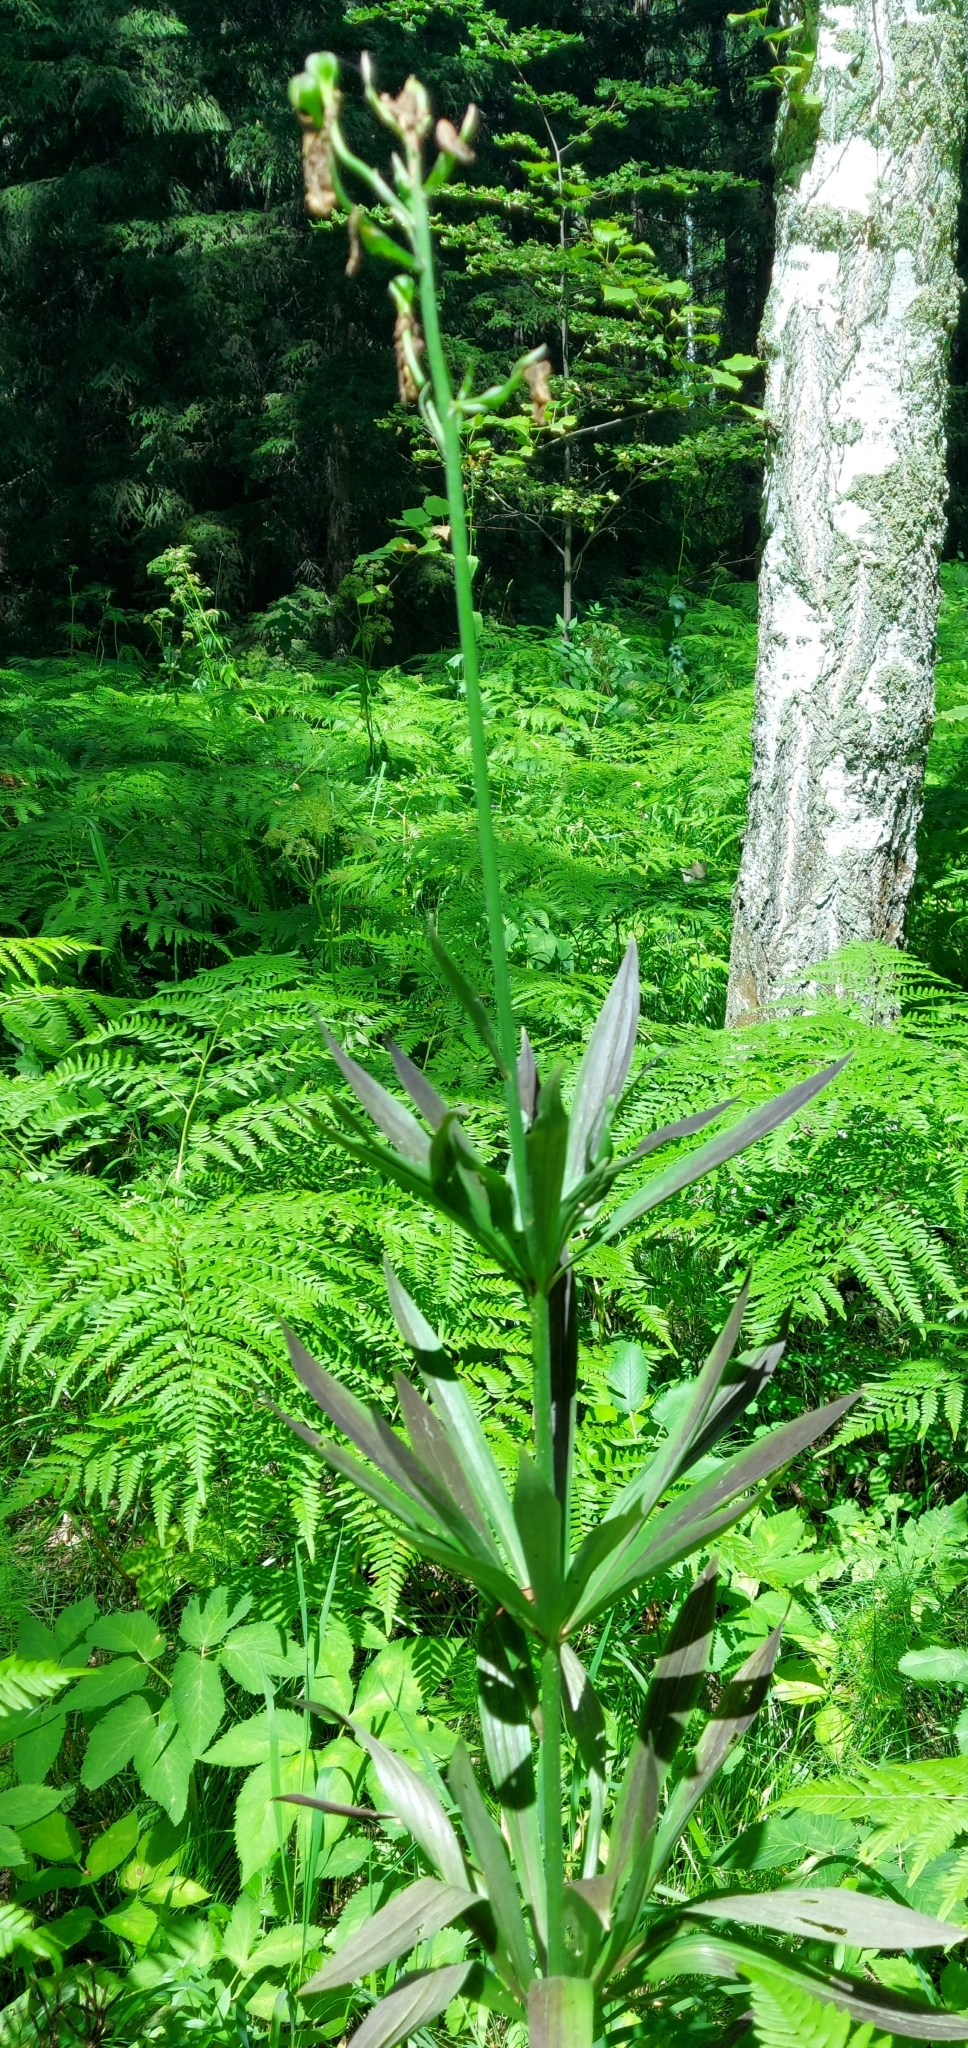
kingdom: Plantae
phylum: Tracheophyta
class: Liliopsida
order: Liliales
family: Liliaceae
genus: Lilium
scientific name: Lilium martagon
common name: Martagon lily
